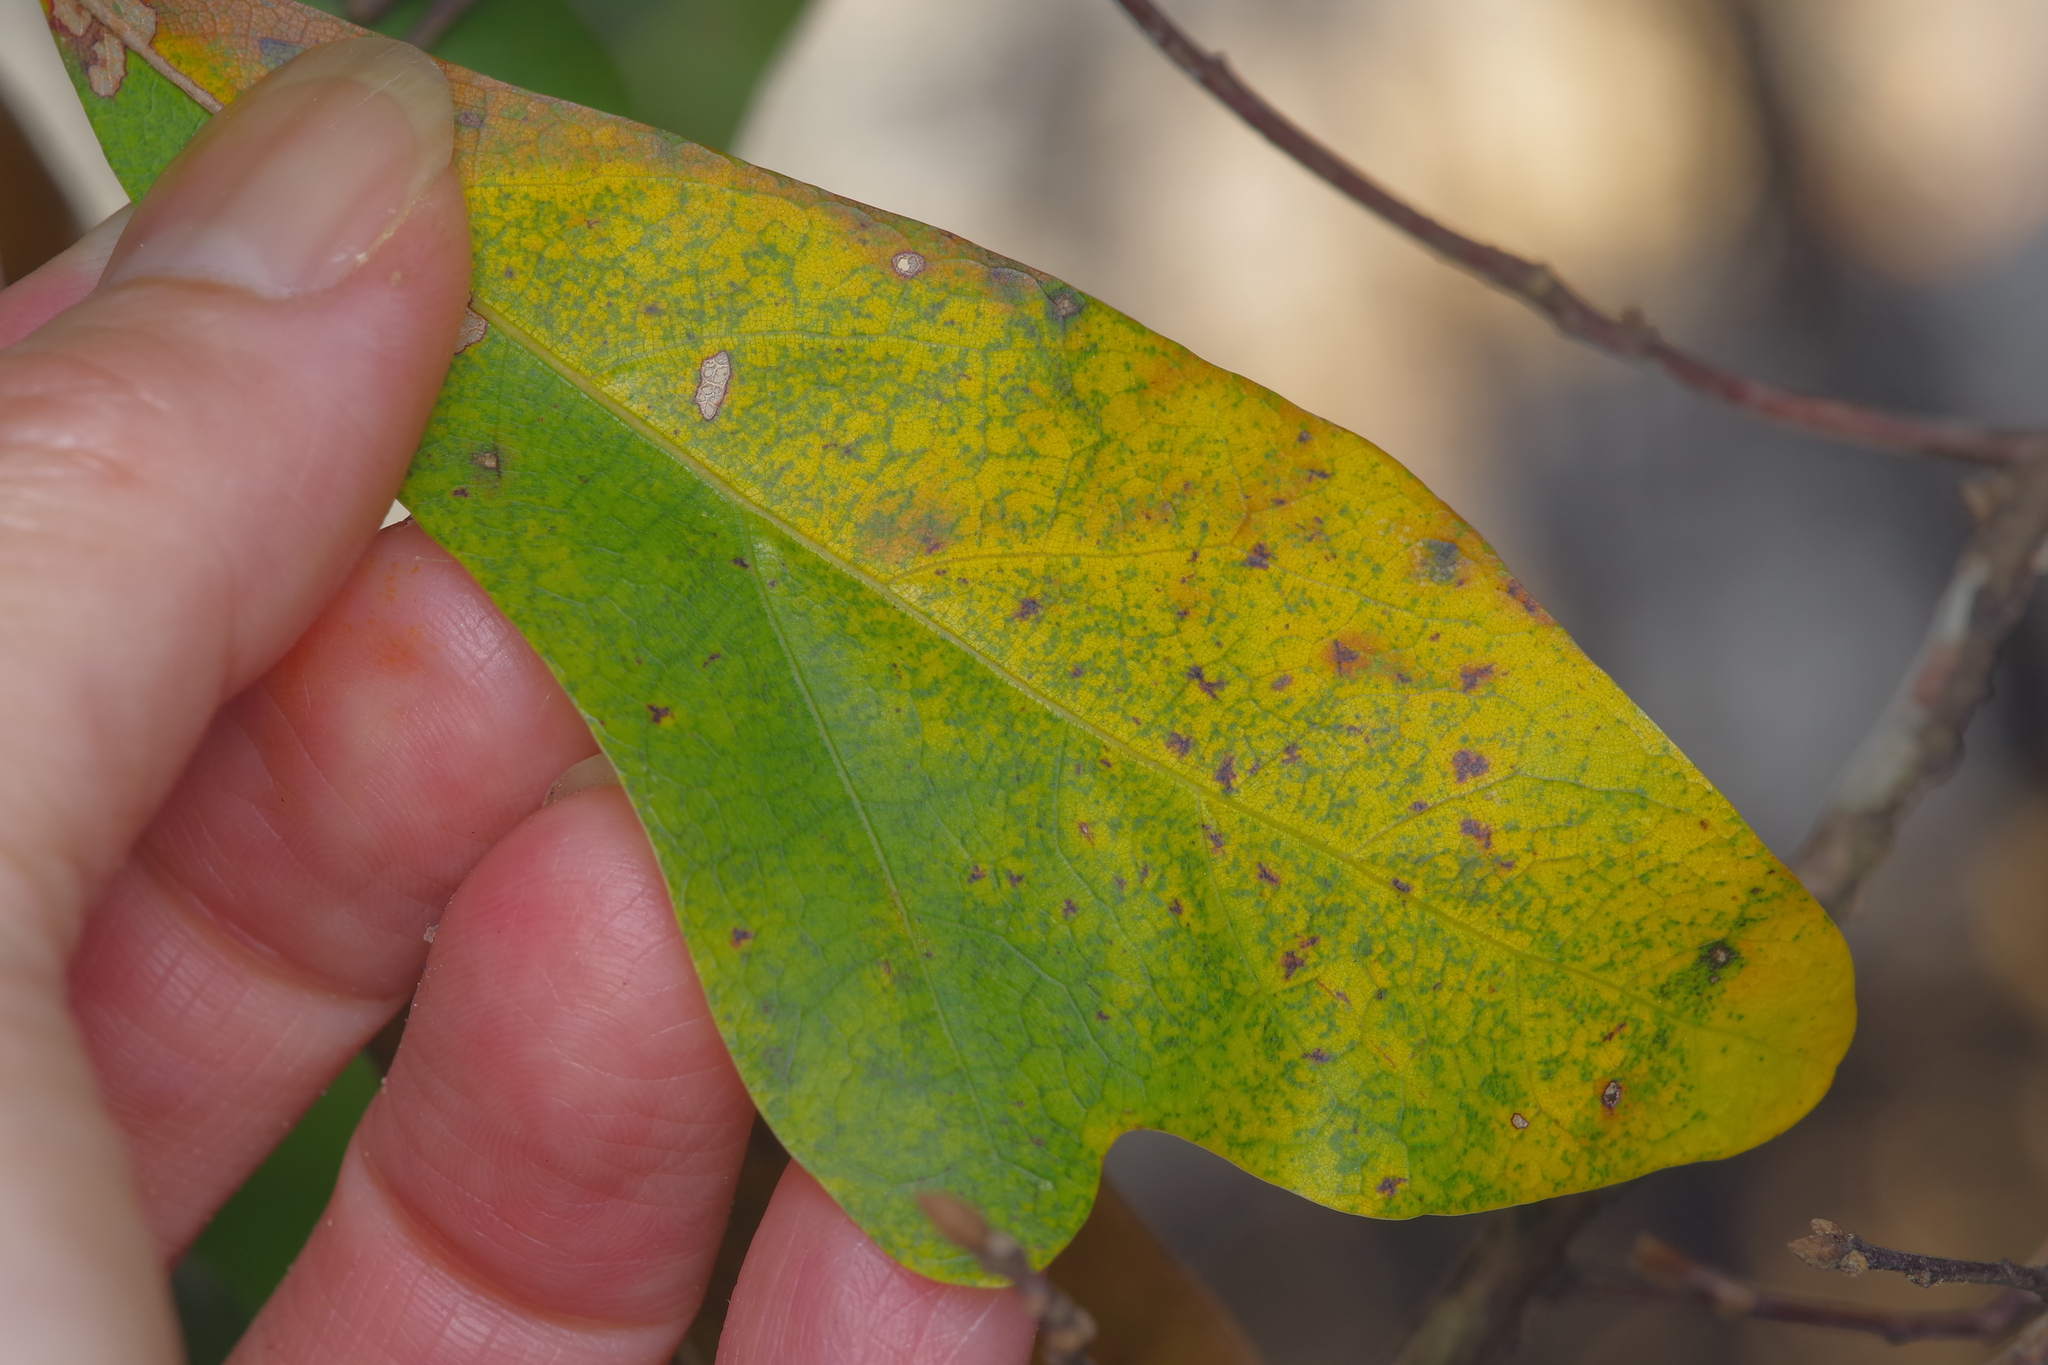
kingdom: Plantae
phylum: Tracheophyta
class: Magnoliopsida
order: Fagales
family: Fagaceae
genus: Quercus
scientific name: Quercus nigra
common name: Water oak
